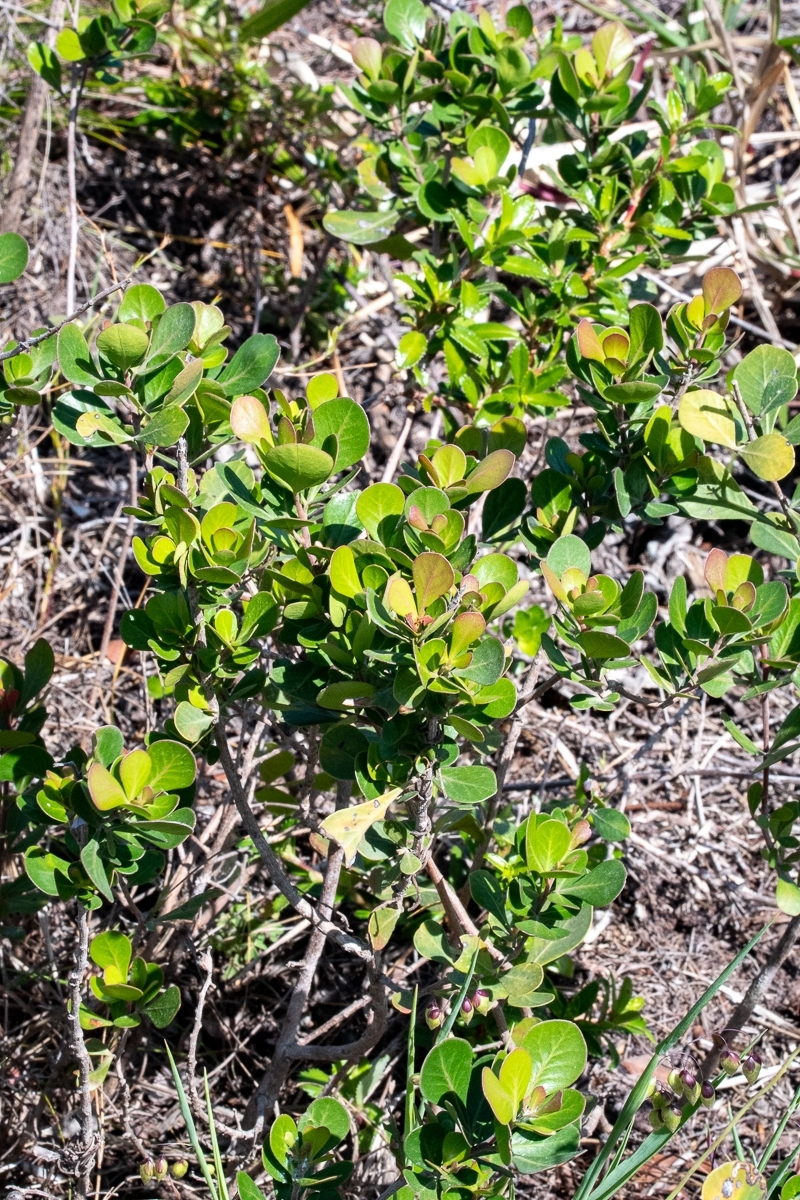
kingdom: Plantae
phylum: Tracheophyta
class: Magnoliopsida
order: Sapindales
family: Anacardiaceae
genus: Searsia
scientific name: Searsia lucida
